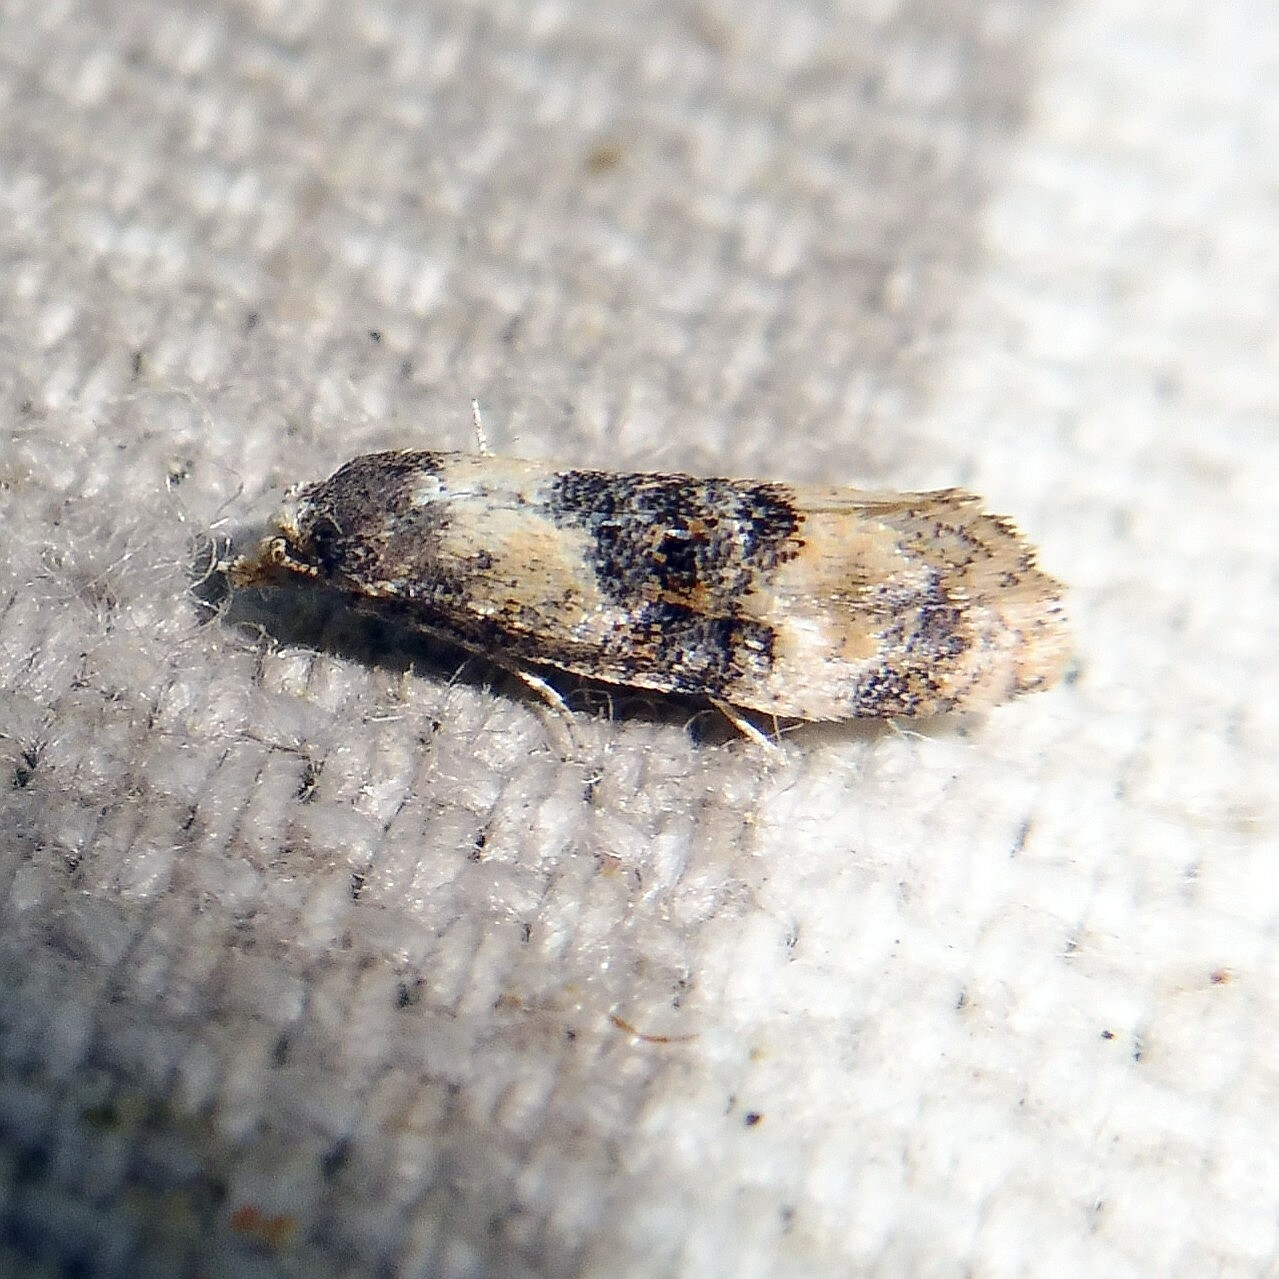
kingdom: Animalia
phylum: Arthropoda
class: Insecta
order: Lepidoptera
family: Tortricidae
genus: Thyraylia
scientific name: Thyraylia nana
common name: Birch conch
